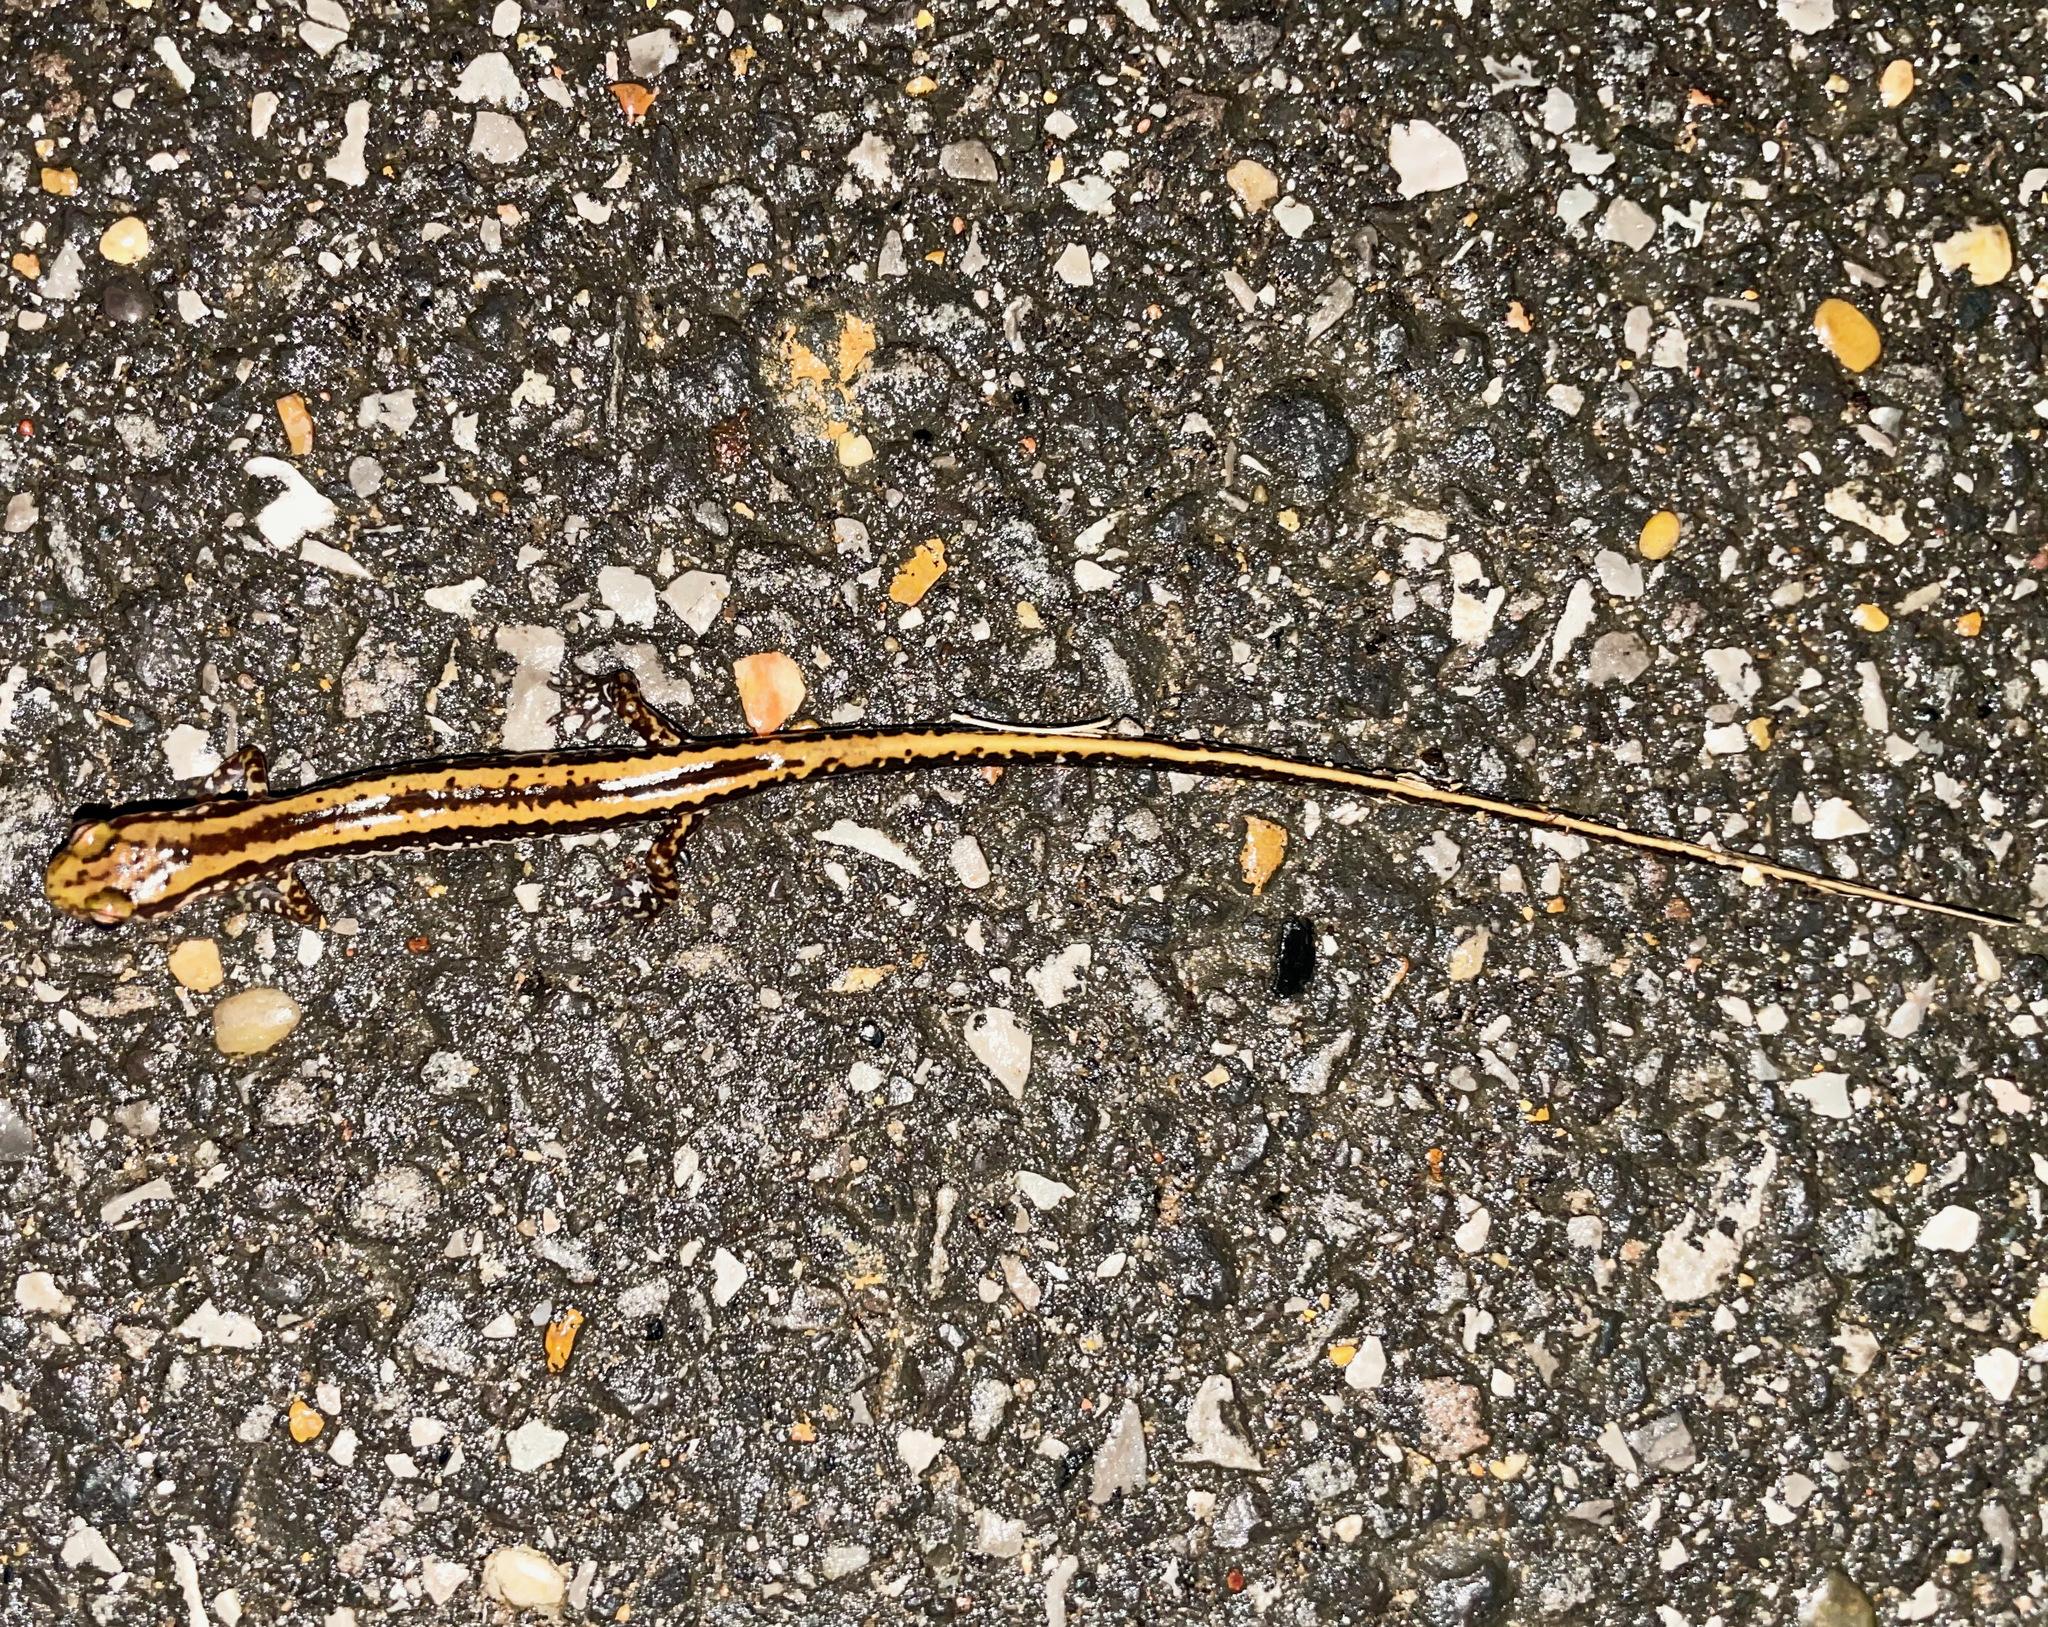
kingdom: Animalia
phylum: Chordata
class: Amphibia
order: Caudata
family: Plethodontidae
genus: Eurycea
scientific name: Eurycea guttolineata
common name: Three-lined salamander
